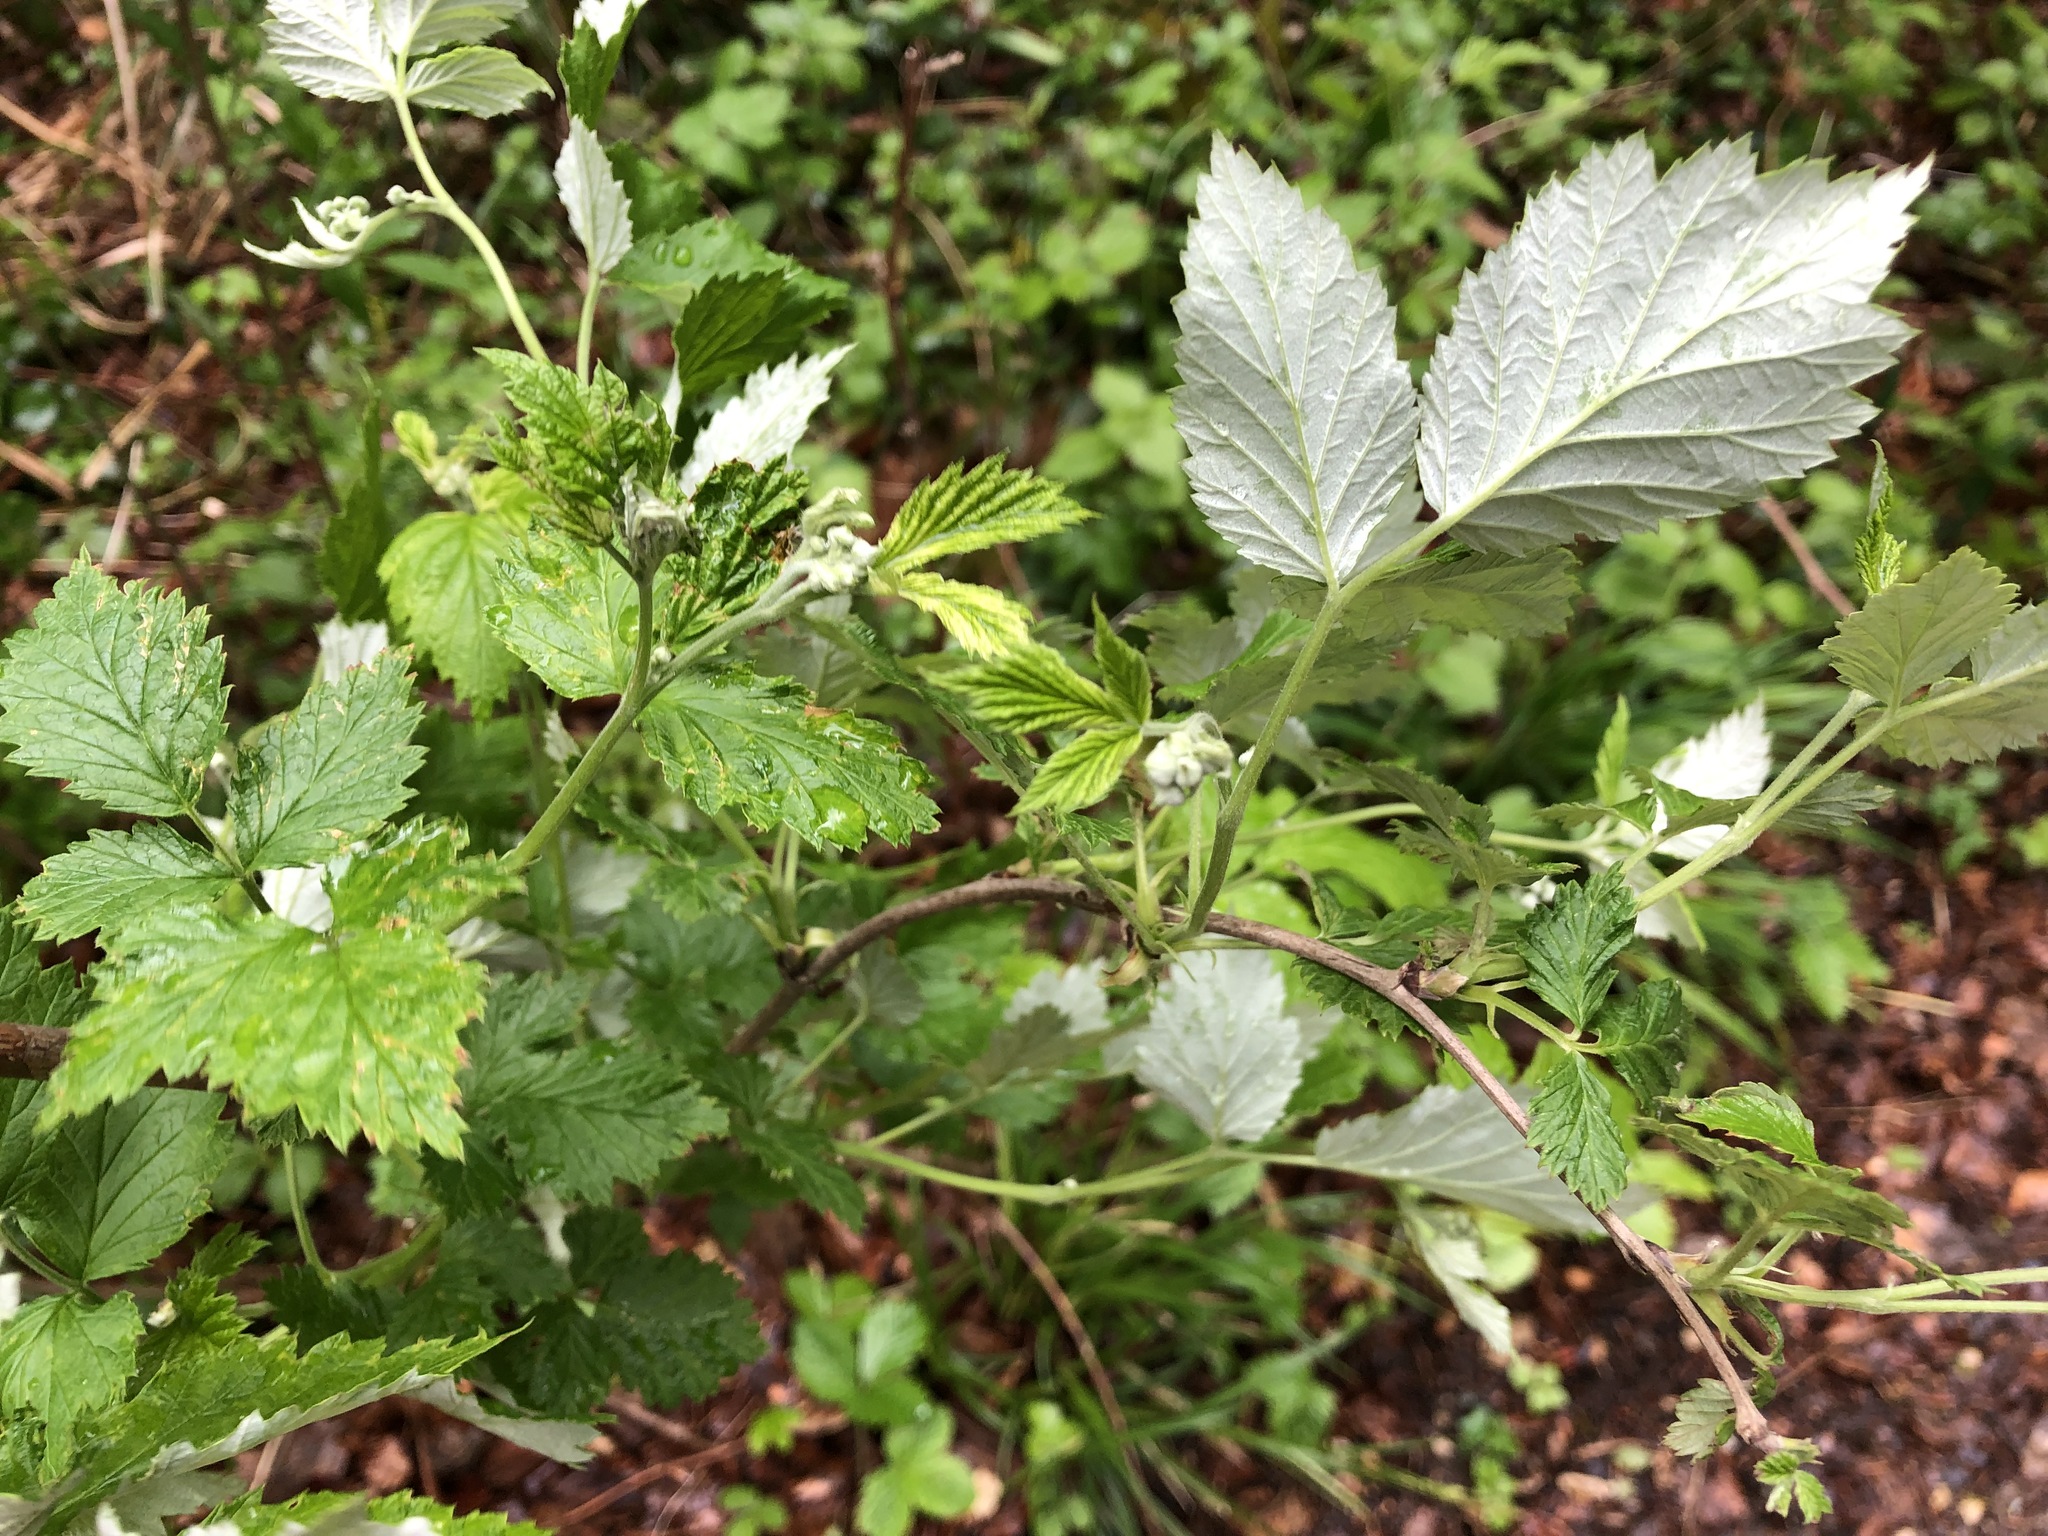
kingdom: Plantae
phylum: Tracheophyta
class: Magnoliopsida
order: Rosales
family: Rosaceae
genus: Rubus
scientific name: Rubus idaeus
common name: Raspberry
